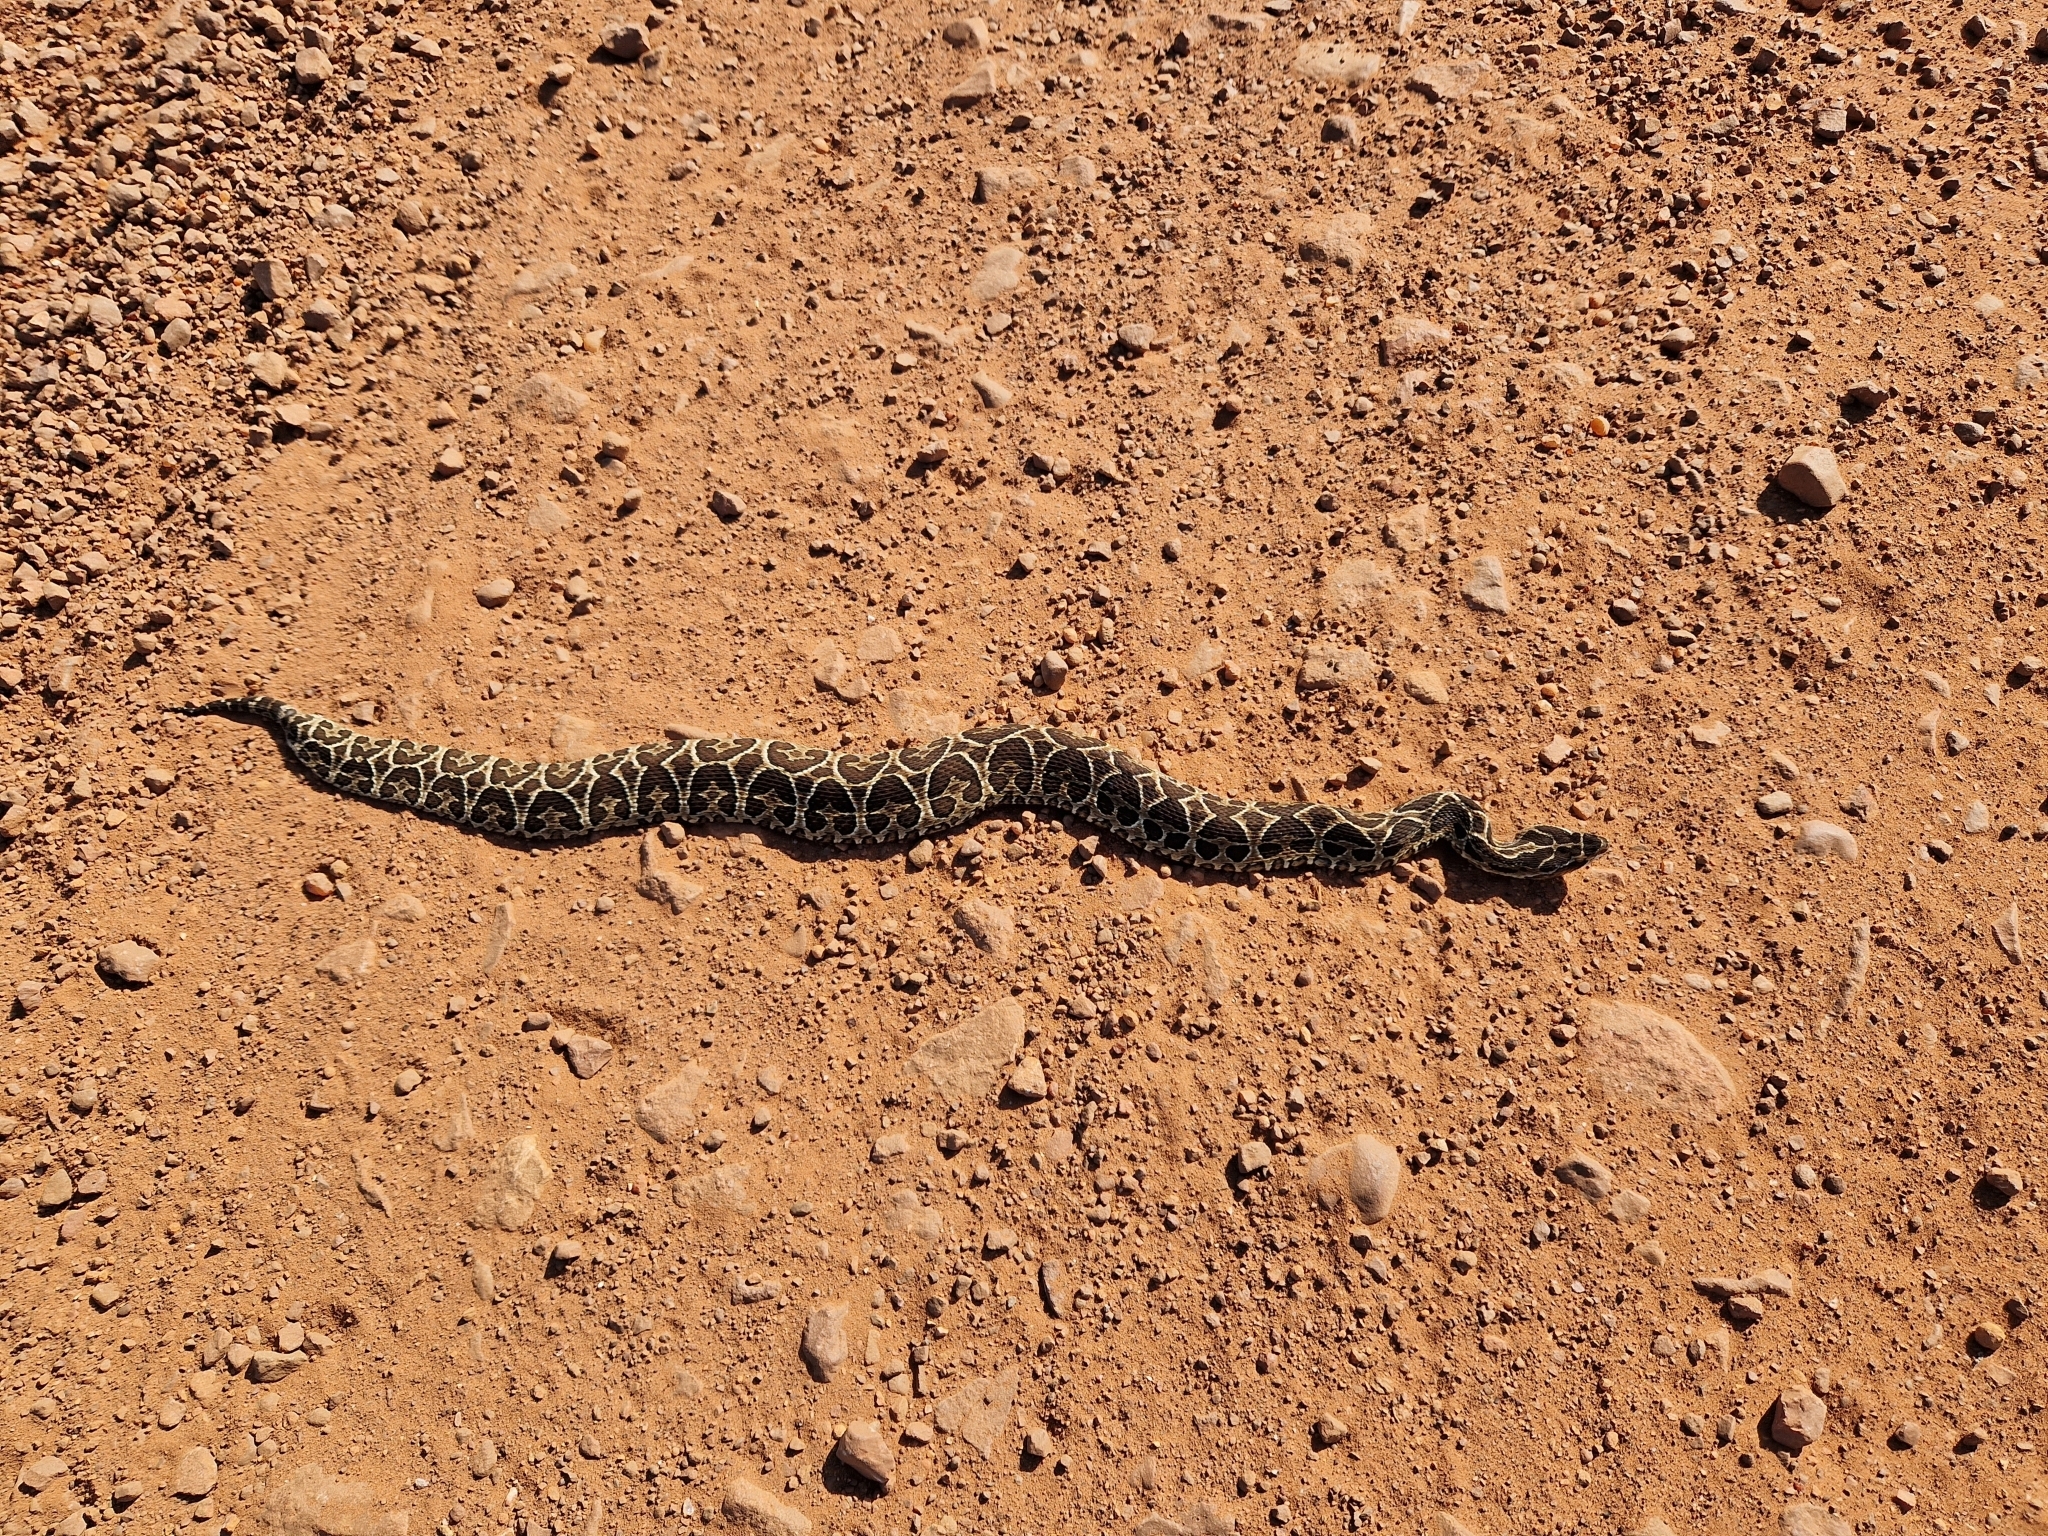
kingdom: Animalia
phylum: Chordata
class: Squamata
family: Viperidae
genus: Bothrops
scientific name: Bothrops alternatus
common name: Urutu
